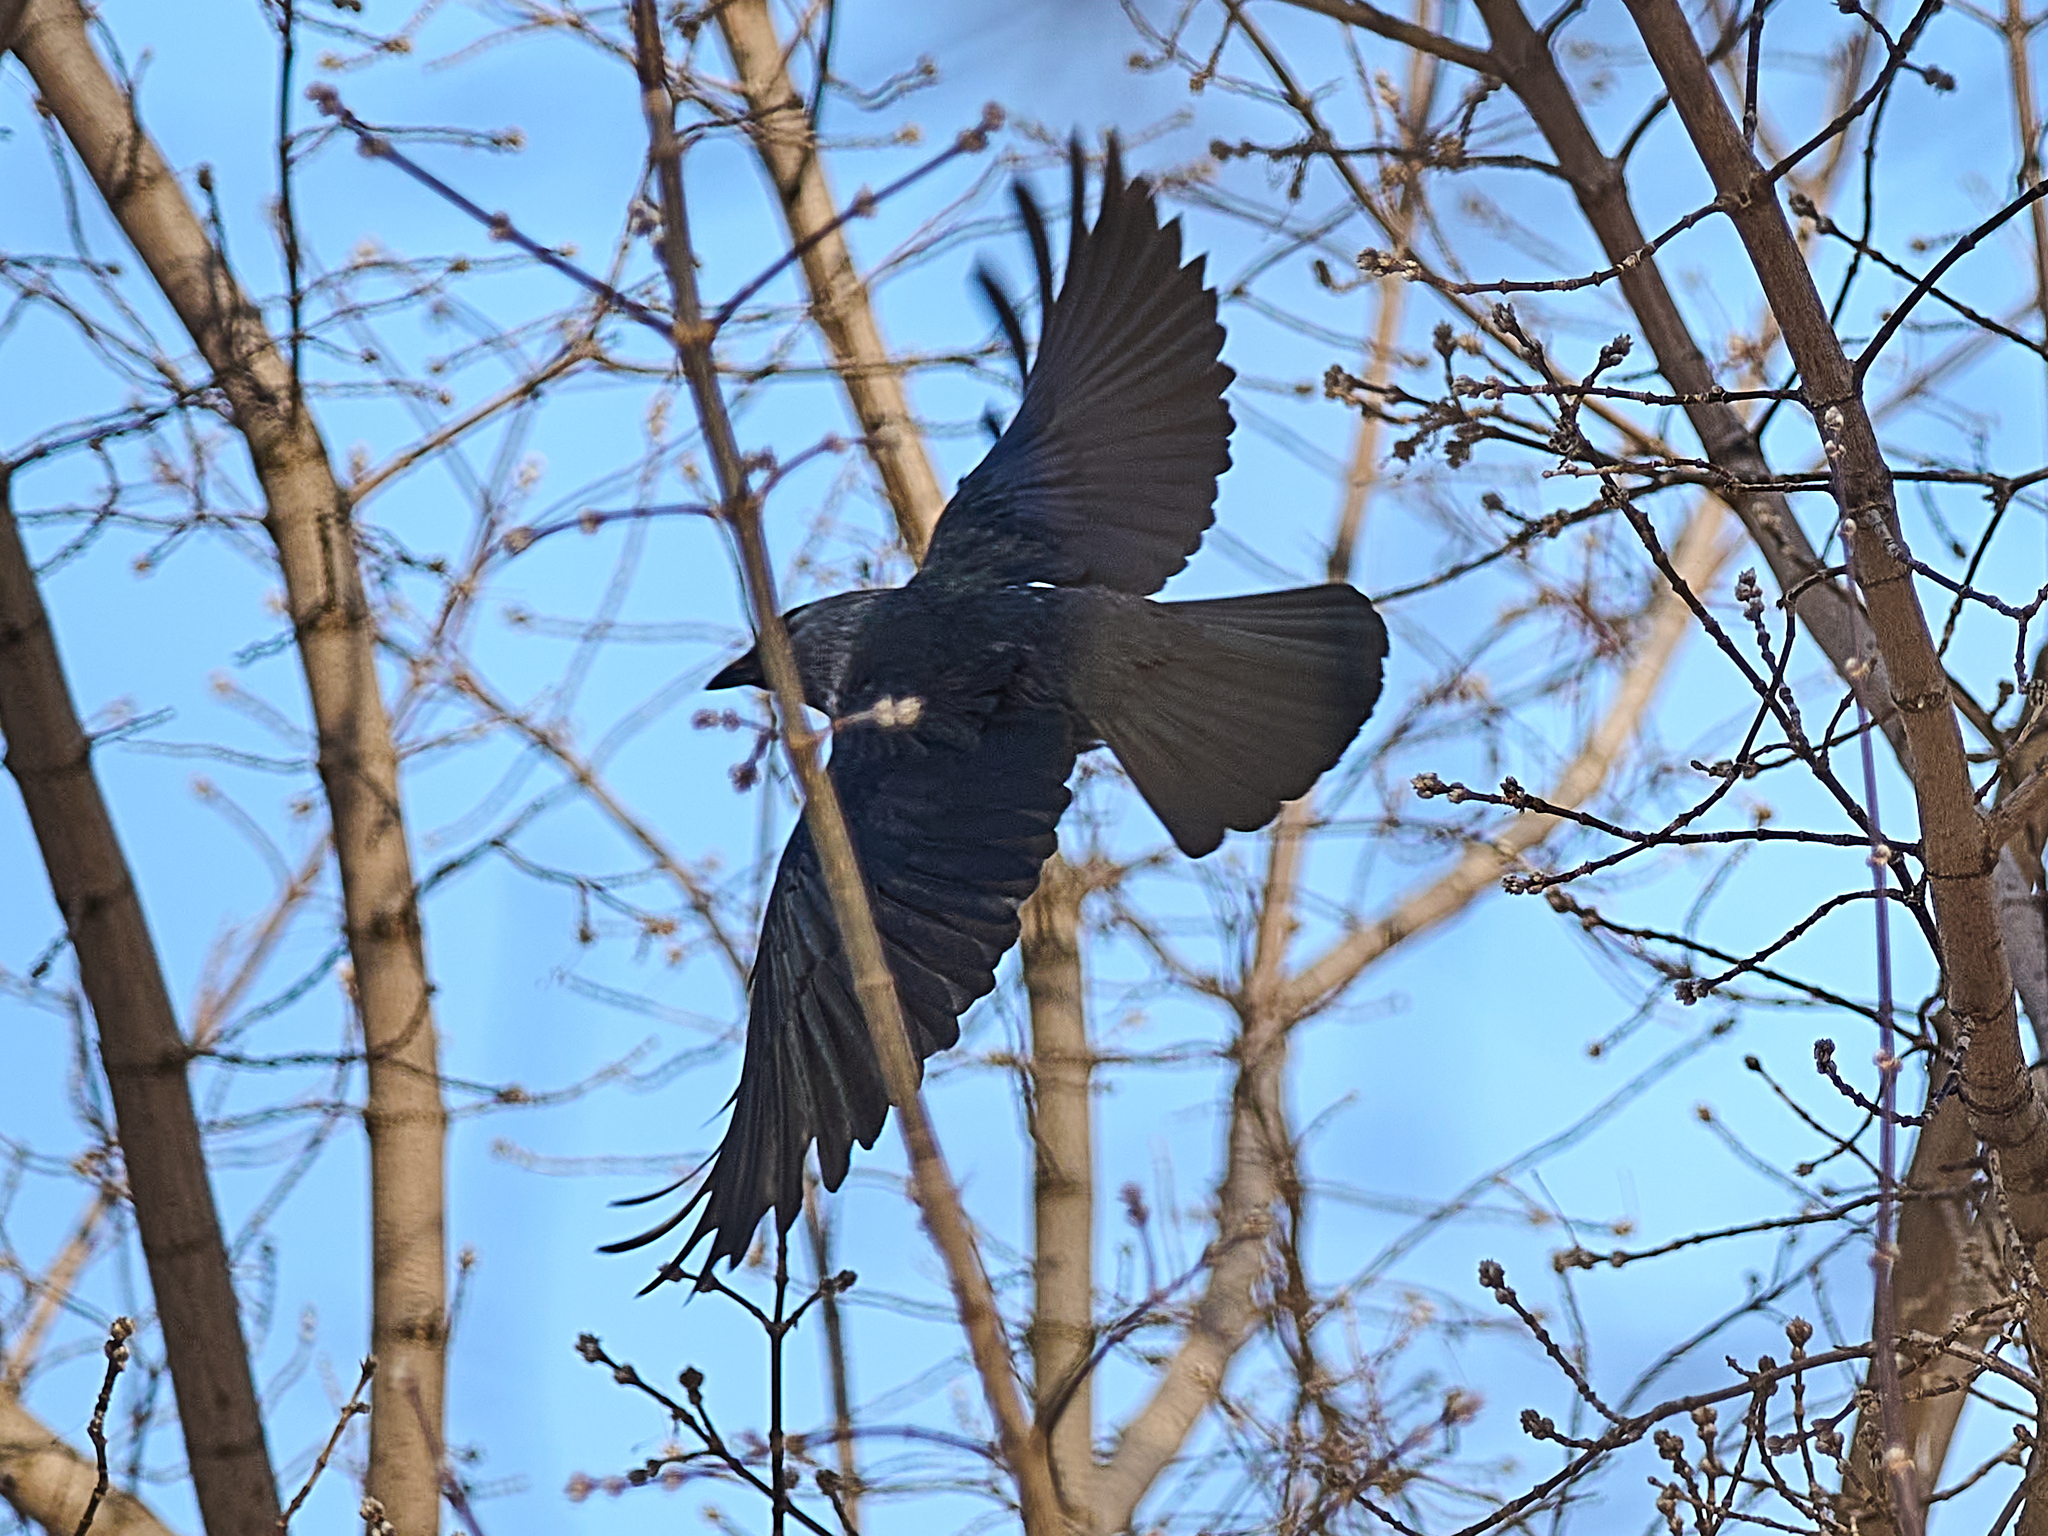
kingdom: Animalia
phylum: Chordata
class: Aves
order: Passeriformes
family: Corvidae
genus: Coloeus
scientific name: Coloeus monedula
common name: Western jackdaw
